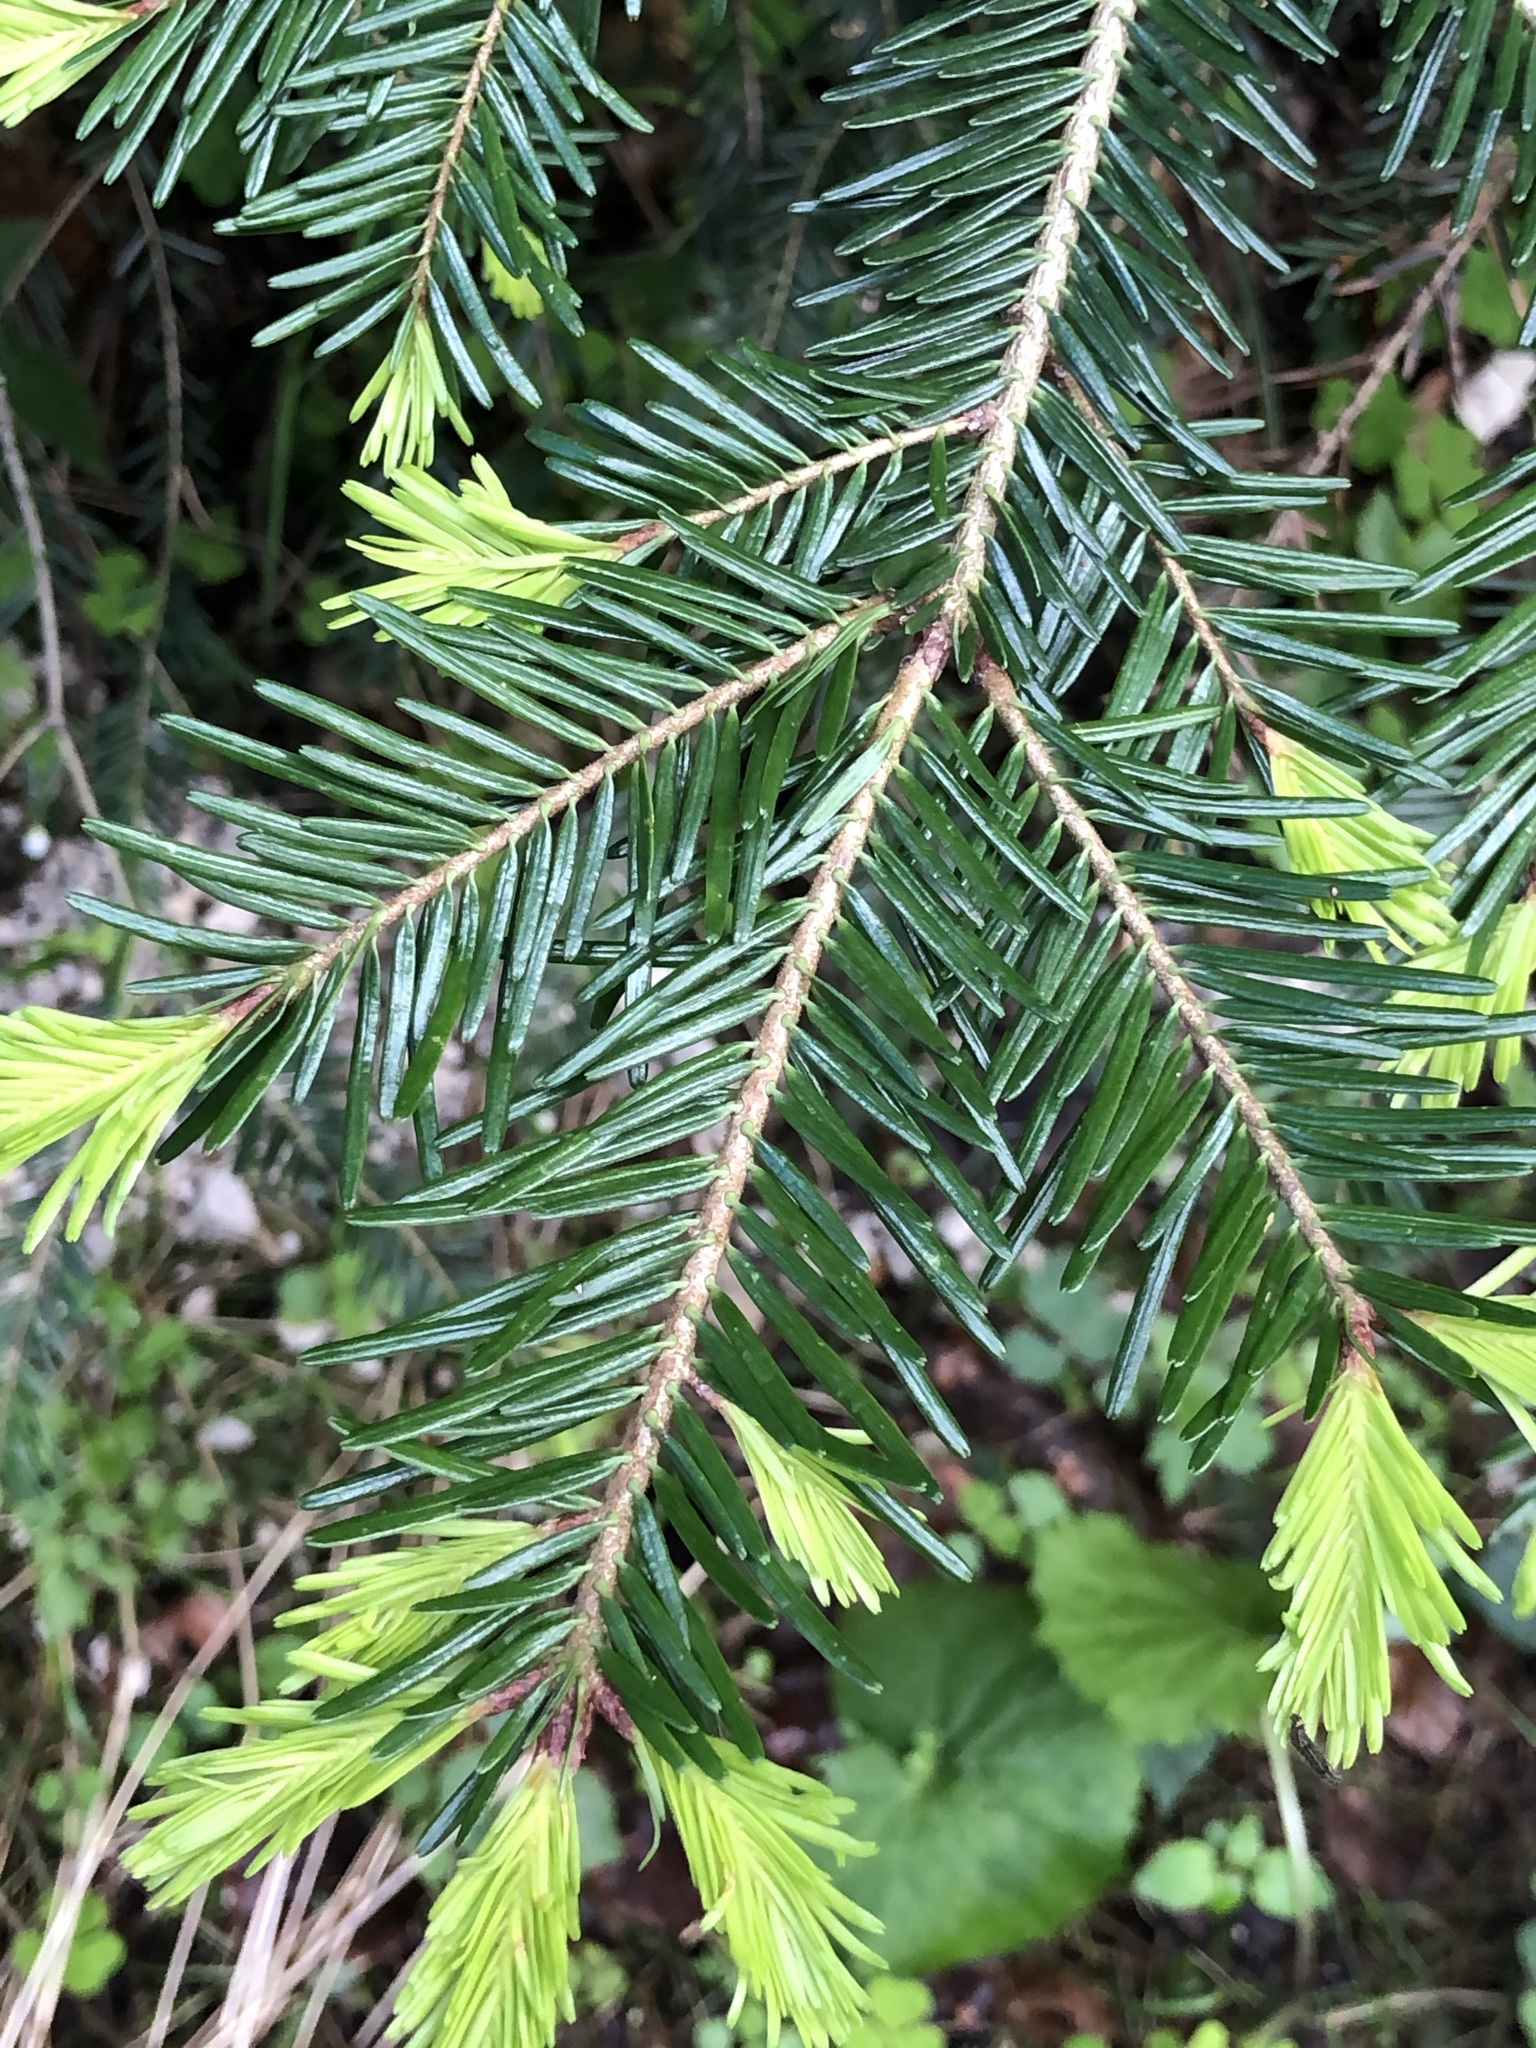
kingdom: Plantae
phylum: Tracheophyta
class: Pinopsida
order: Pinales
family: Pinaceae
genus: Abies
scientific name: Abies alba
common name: Silver fir
